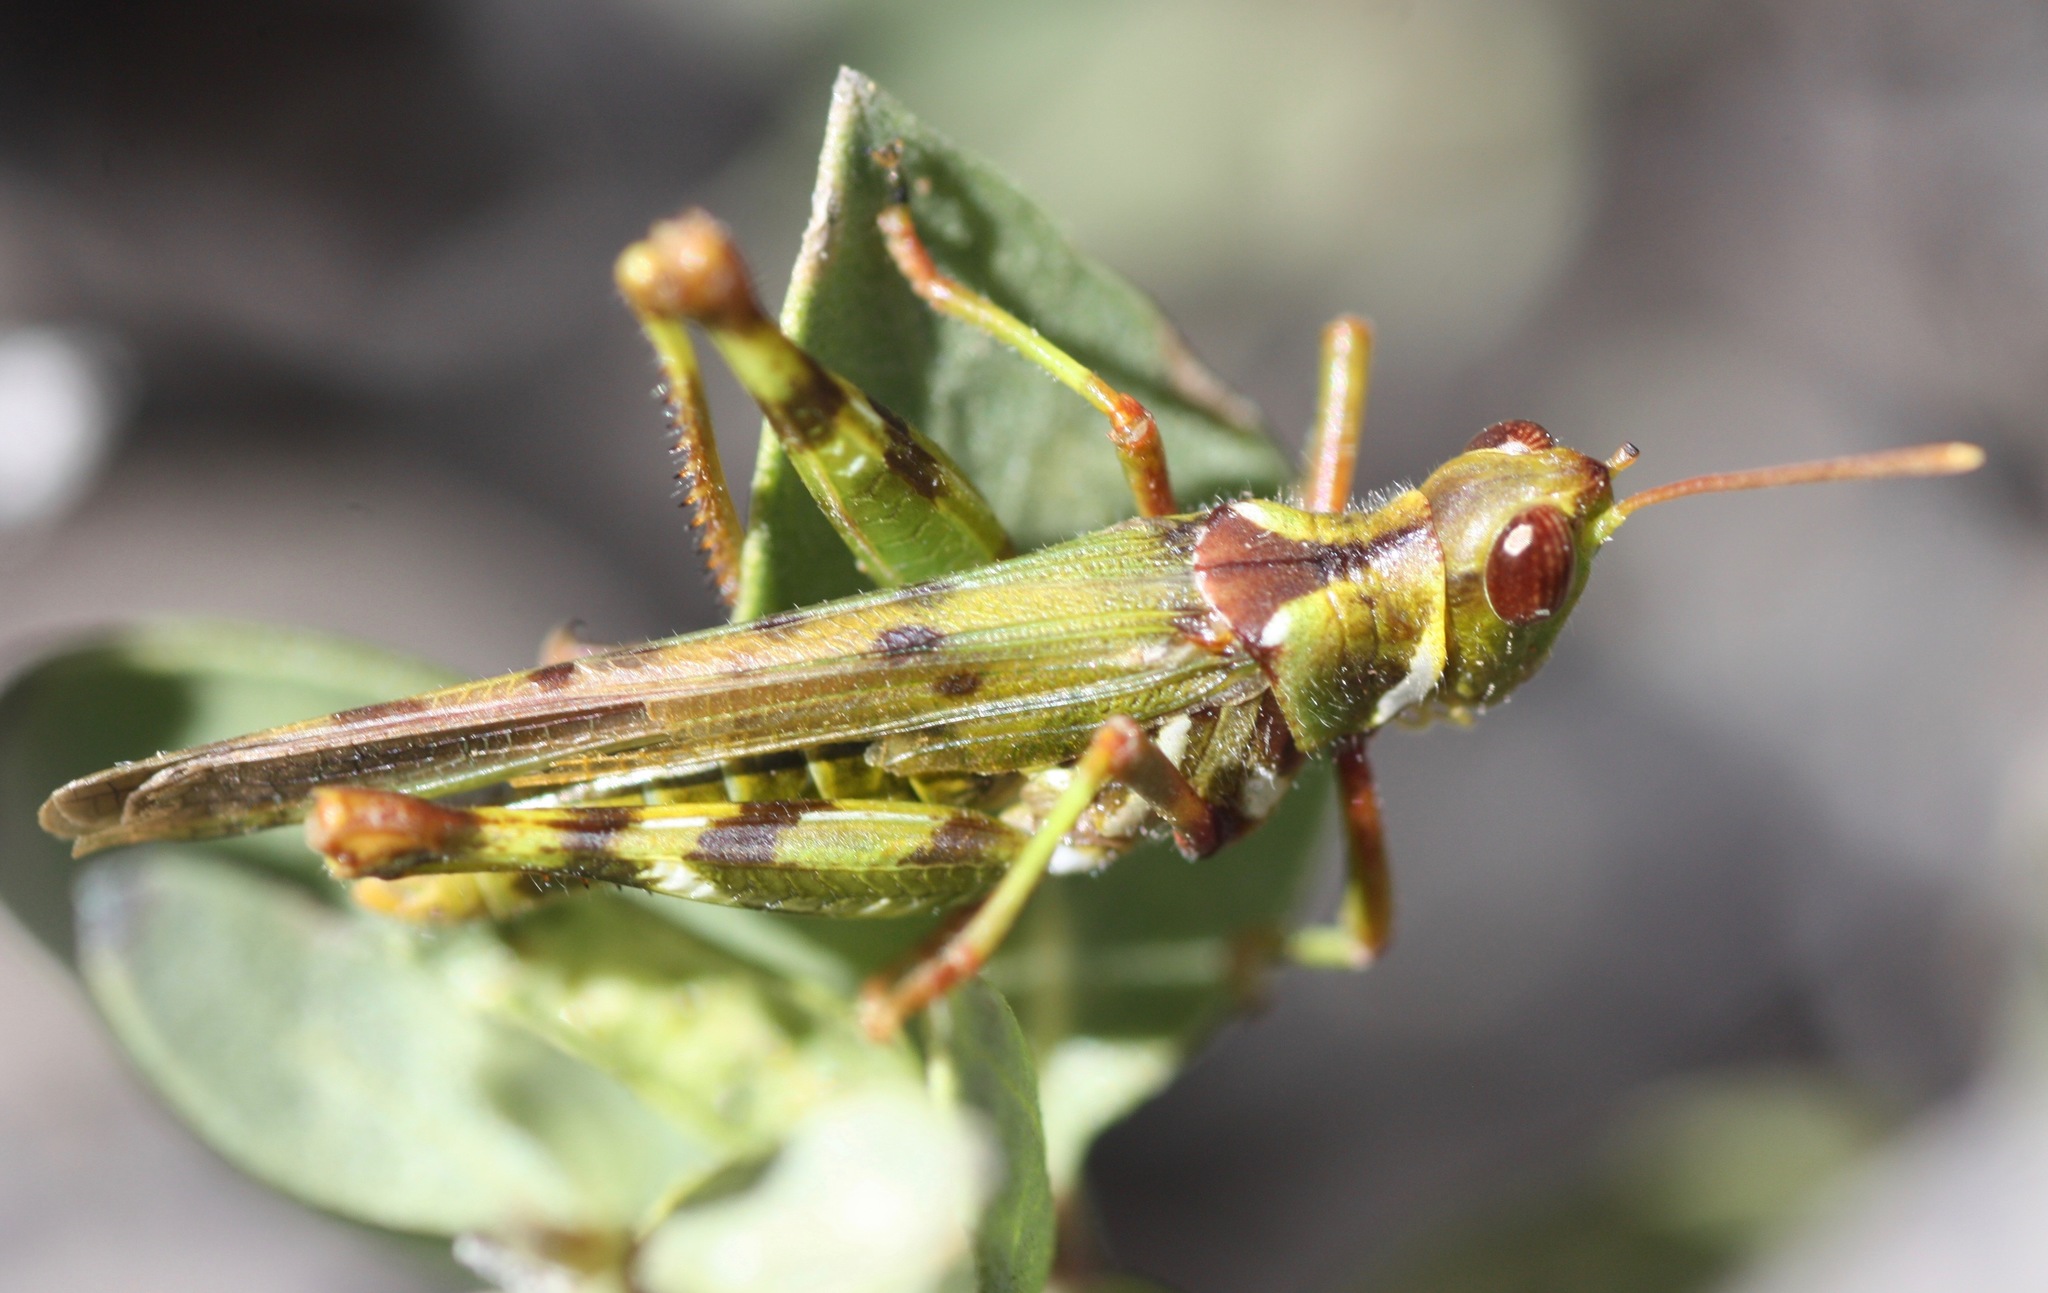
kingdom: Animalia
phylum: Arthropoda
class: Insecta
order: Orthoptera
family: Acrididae
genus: Bootettix
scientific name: Bootettix argentatus
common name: Creosote bush grasshopper
